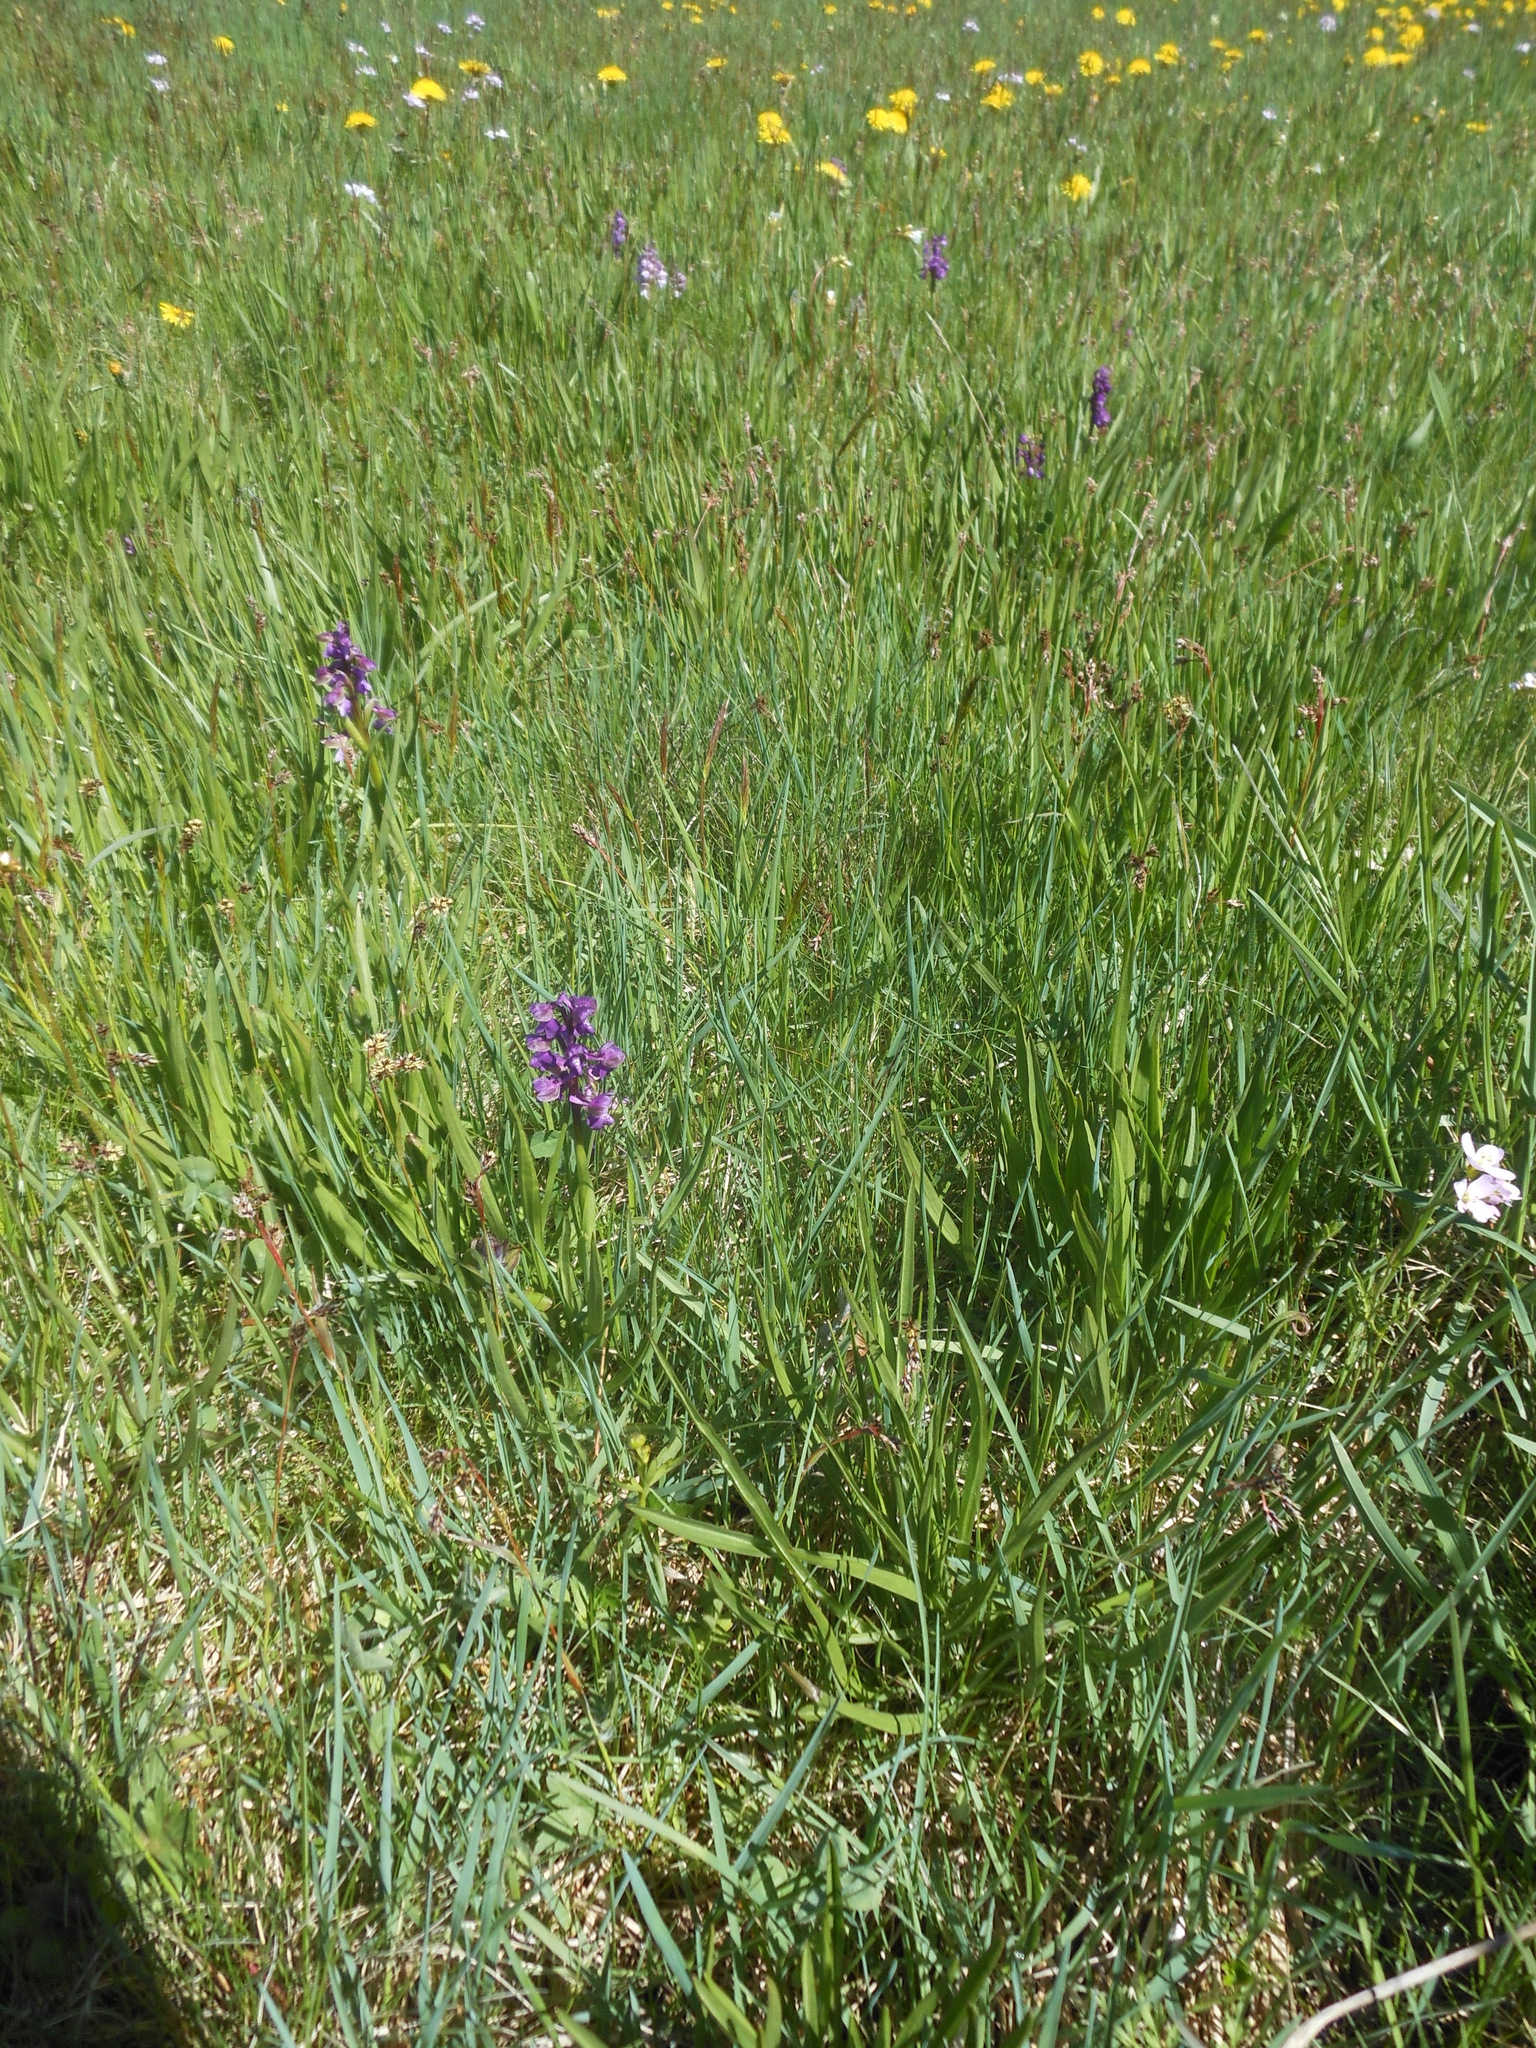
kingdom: Plantae
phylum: Tracheophyta
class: Liliopsida
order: Asparagales
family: Orchidaceae
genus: Anacamptis
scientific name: Anacamptis morio
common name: Green-winged orchid
